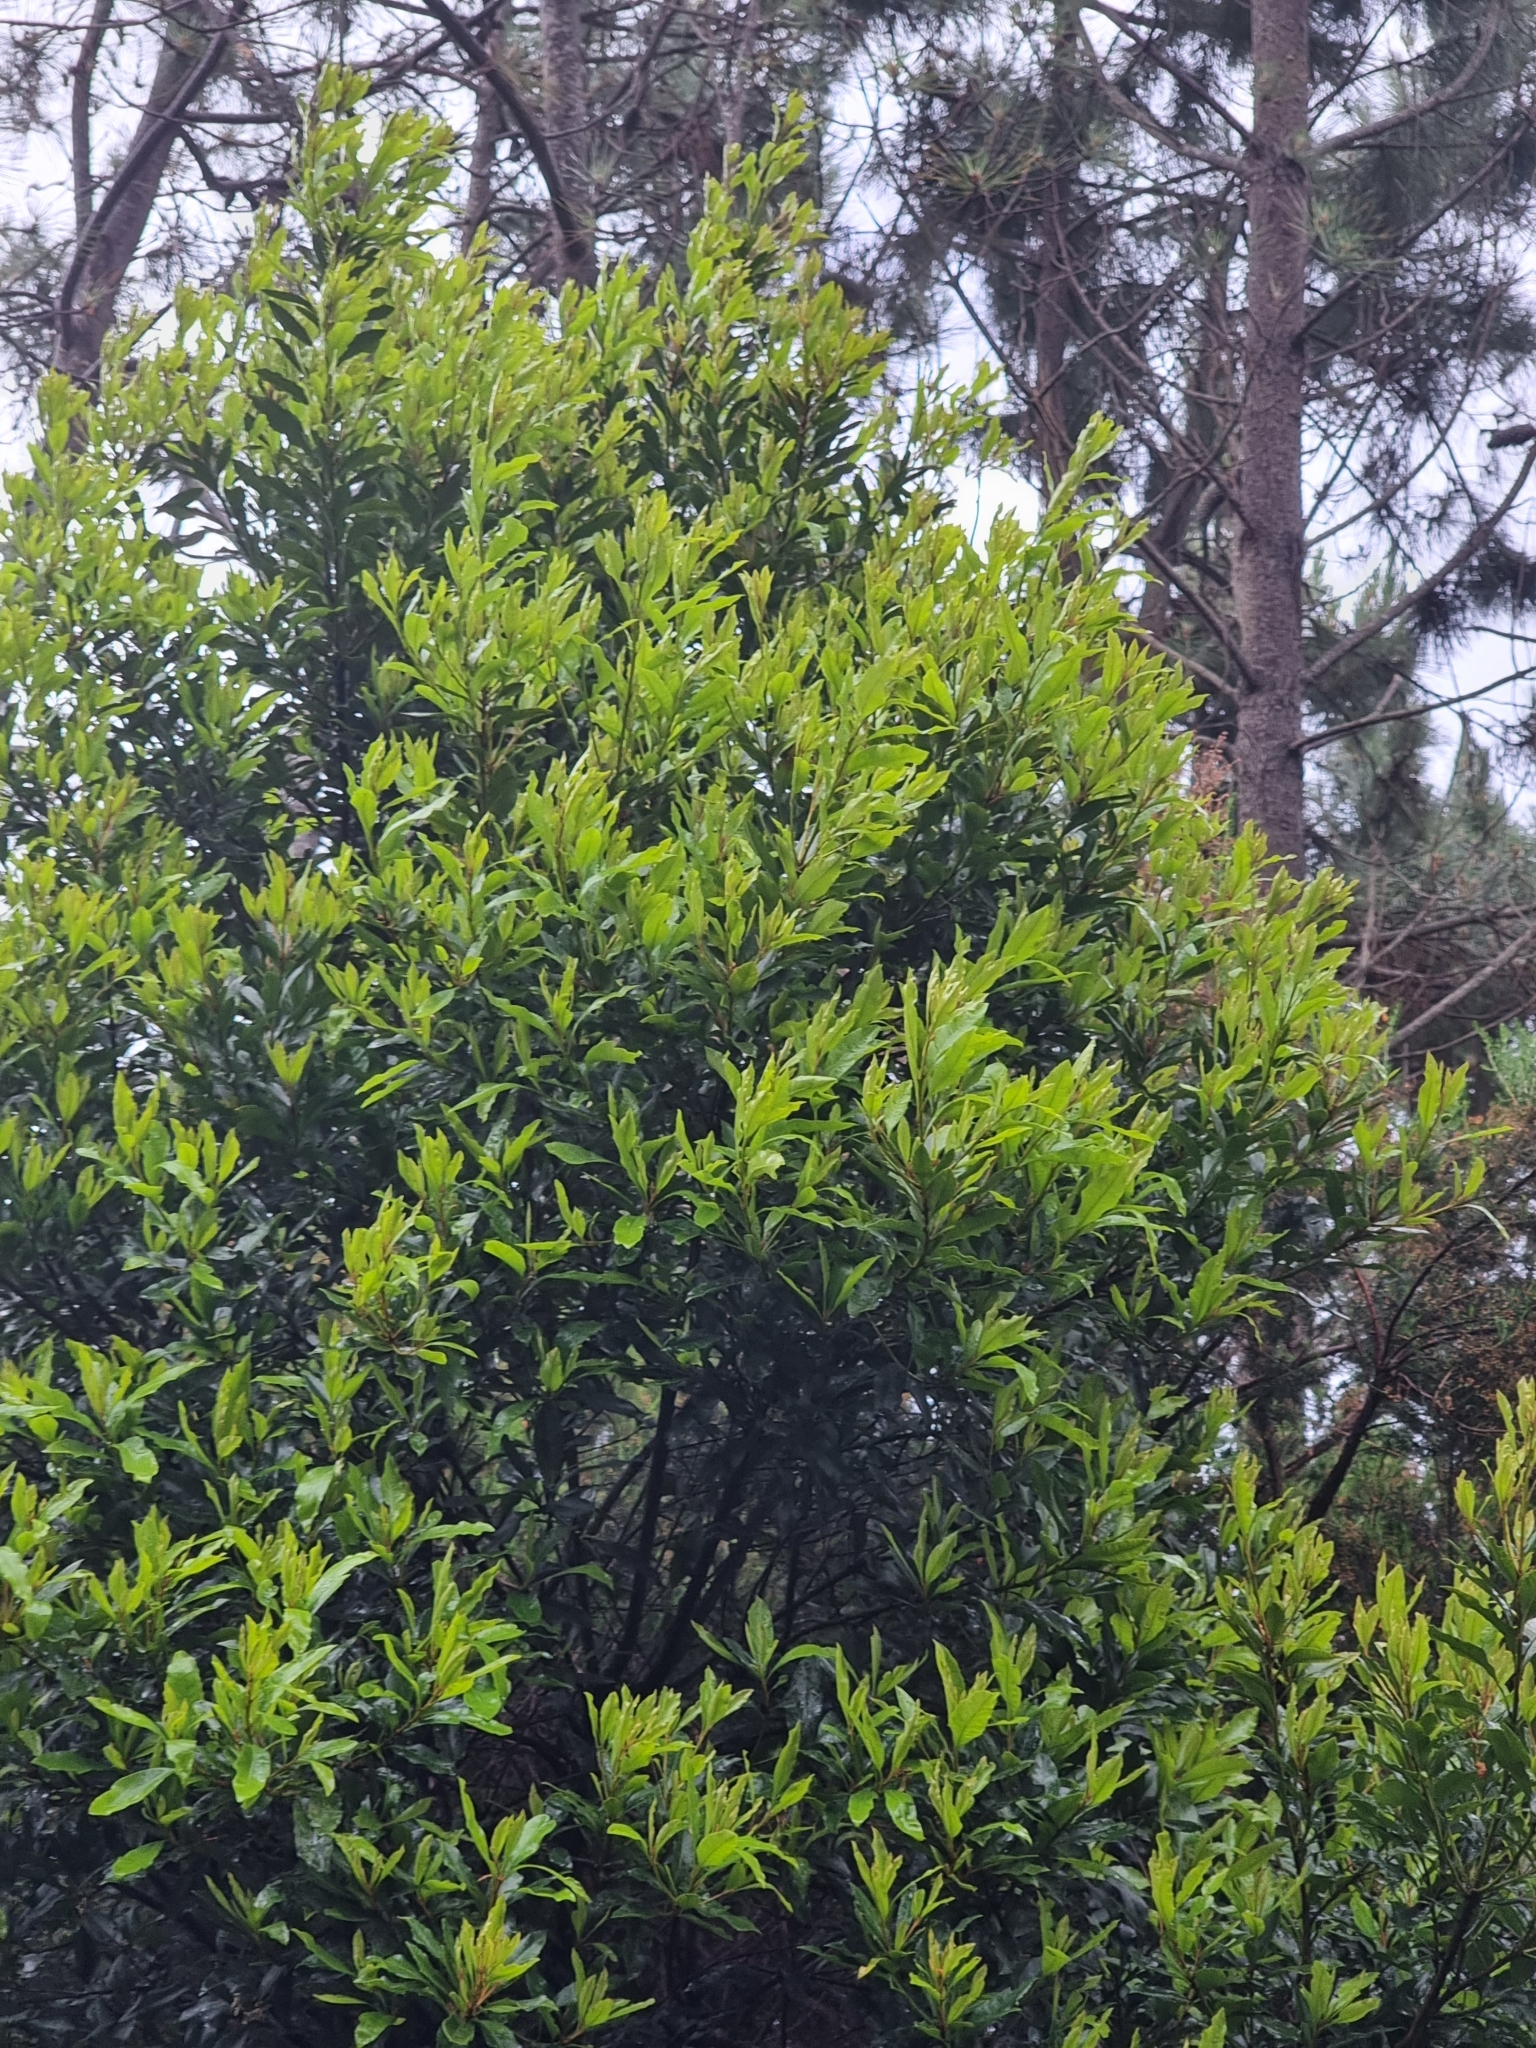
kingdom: Plantae
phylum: Tracheophyta
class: Magnoliopsida
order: Fagales
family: Myricaceae
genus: Morella
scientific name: Morella faya
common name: Firetree
